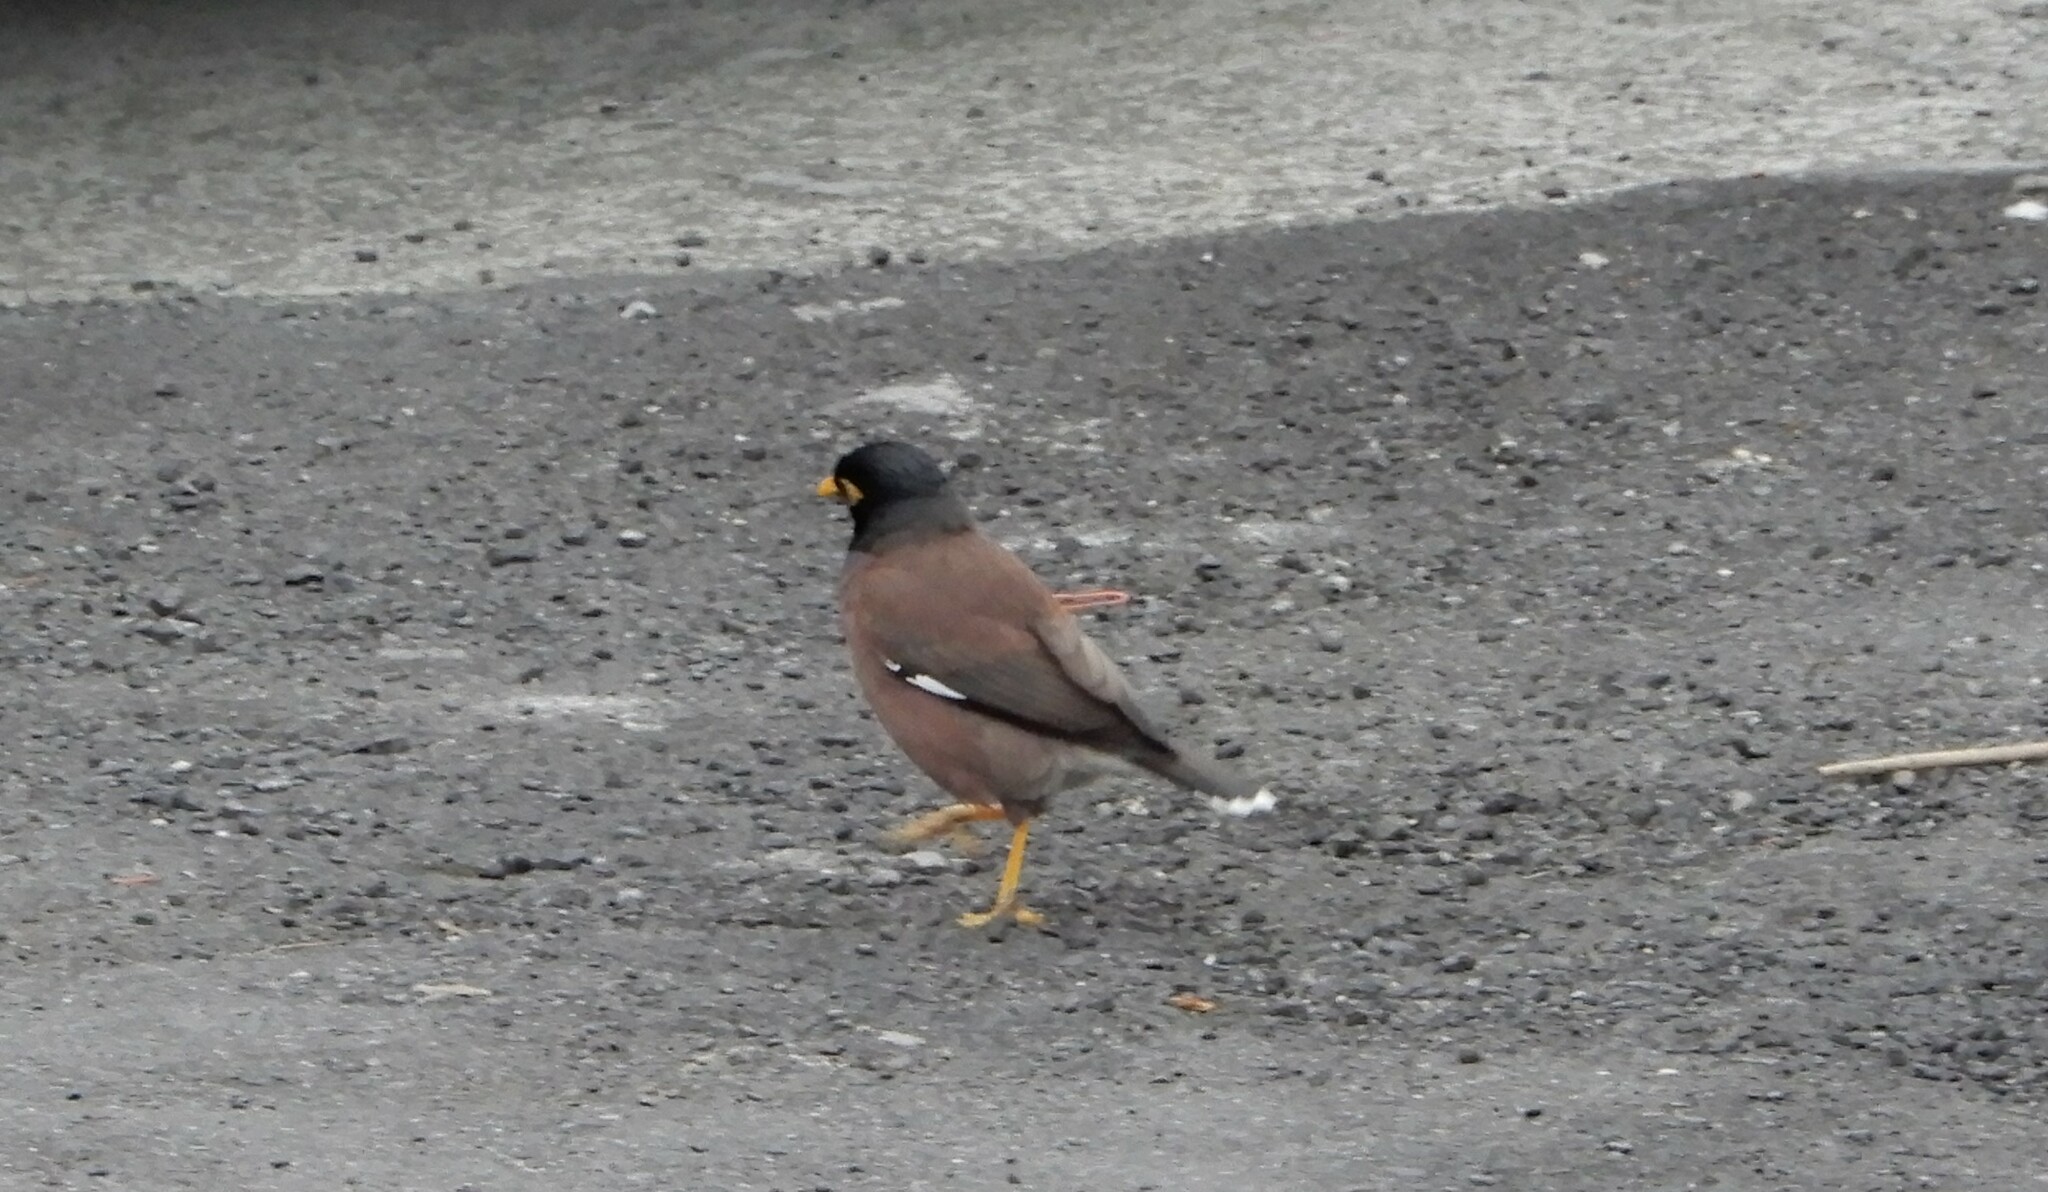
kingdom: Animalia
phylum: Chordata
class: Aves
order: Passeriformes
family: Sturnidae
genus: Acridotheres
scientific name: Acridotheres tristis
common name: Common myna
